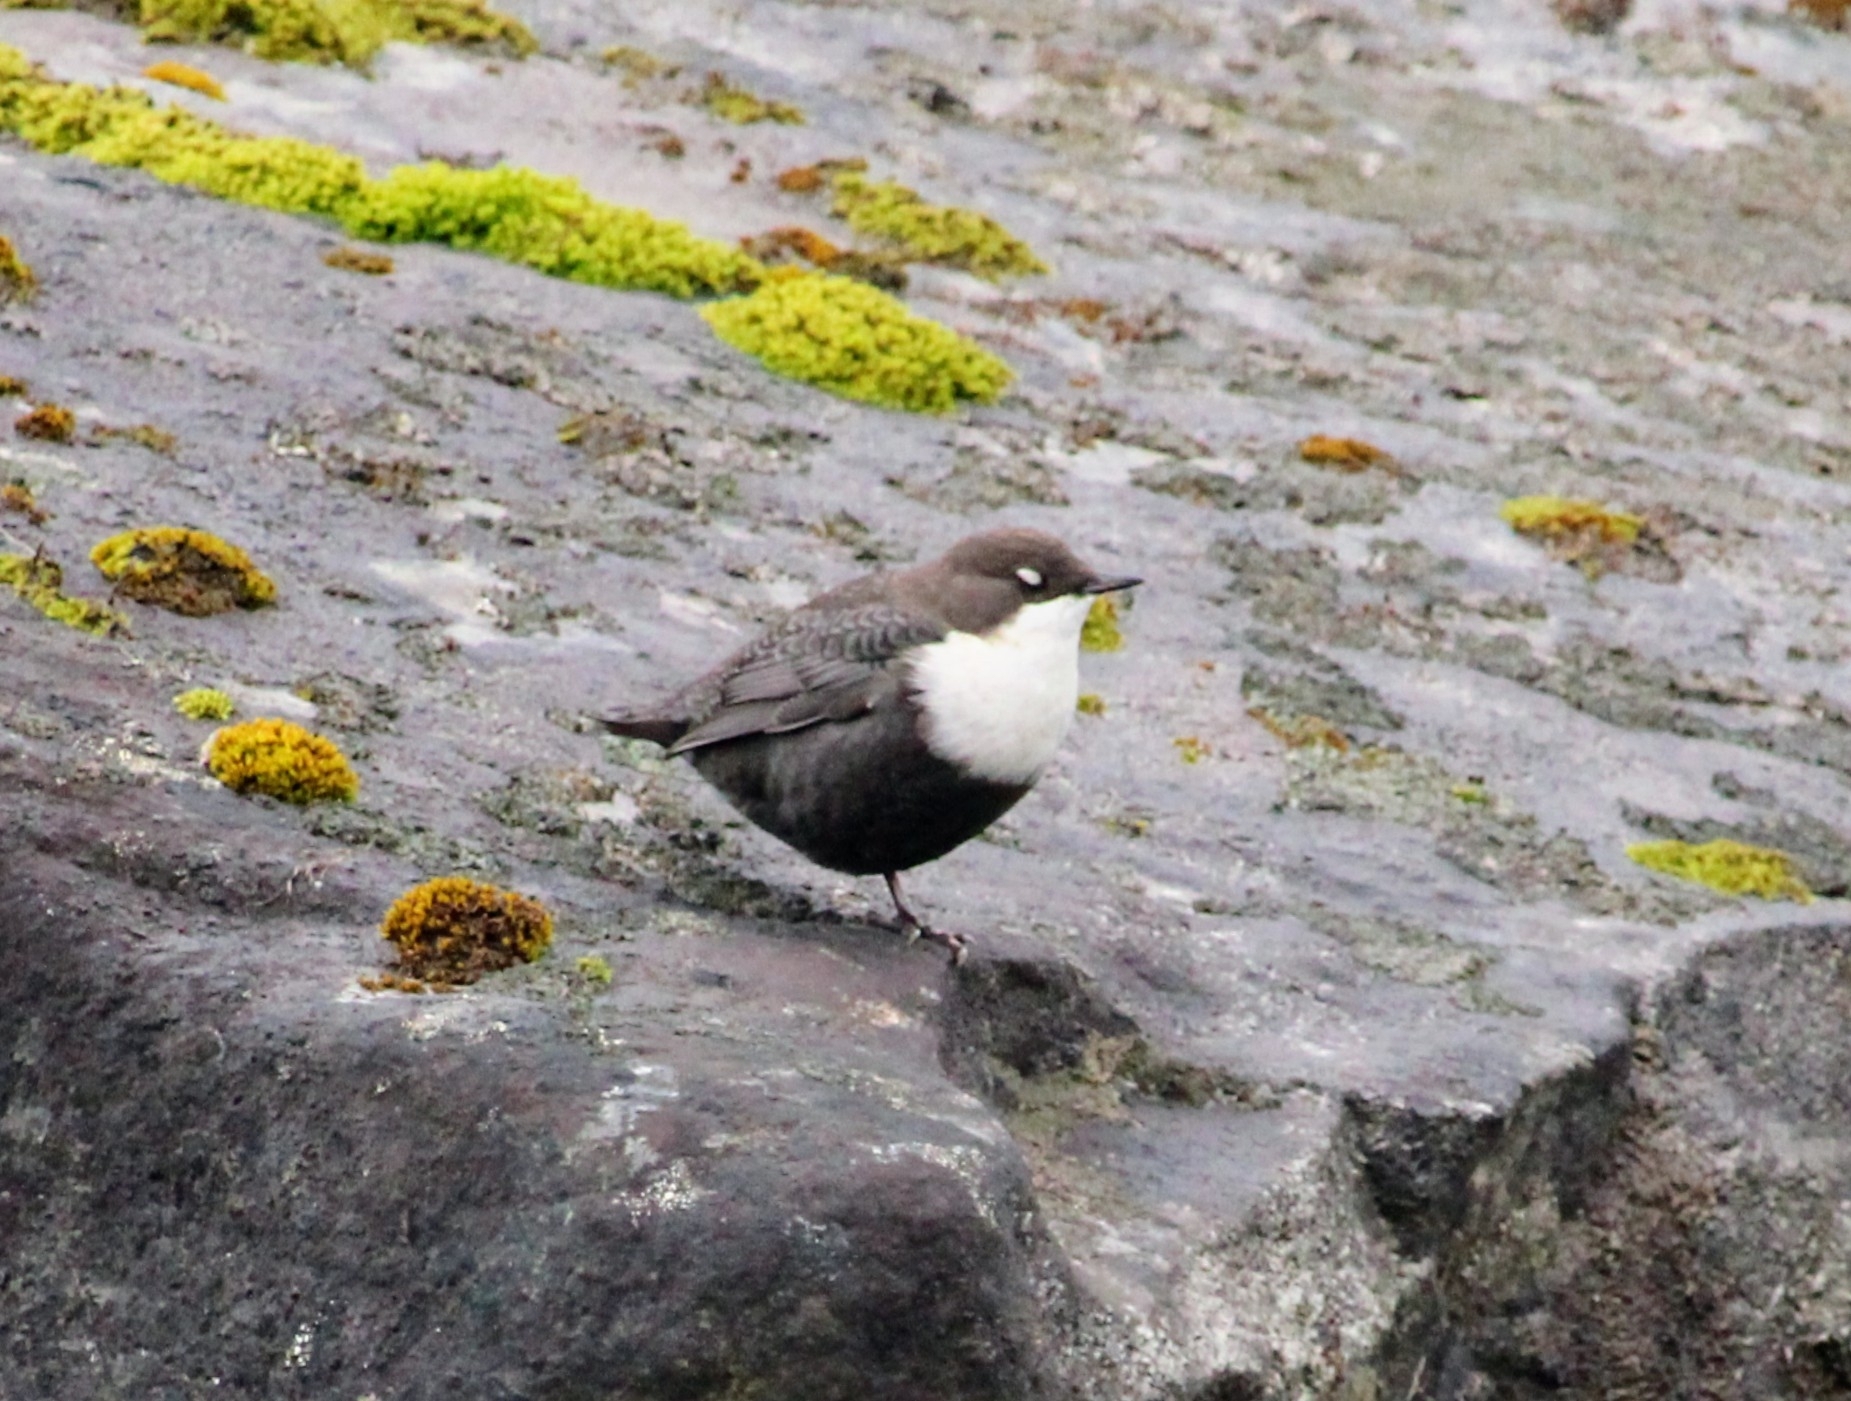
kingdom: Animalia
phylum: Chordata
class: Aves
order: Passeriformes
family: Cinclidae
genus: Cinclus
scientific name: Cinclus cinclus
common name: White-throated dipper
